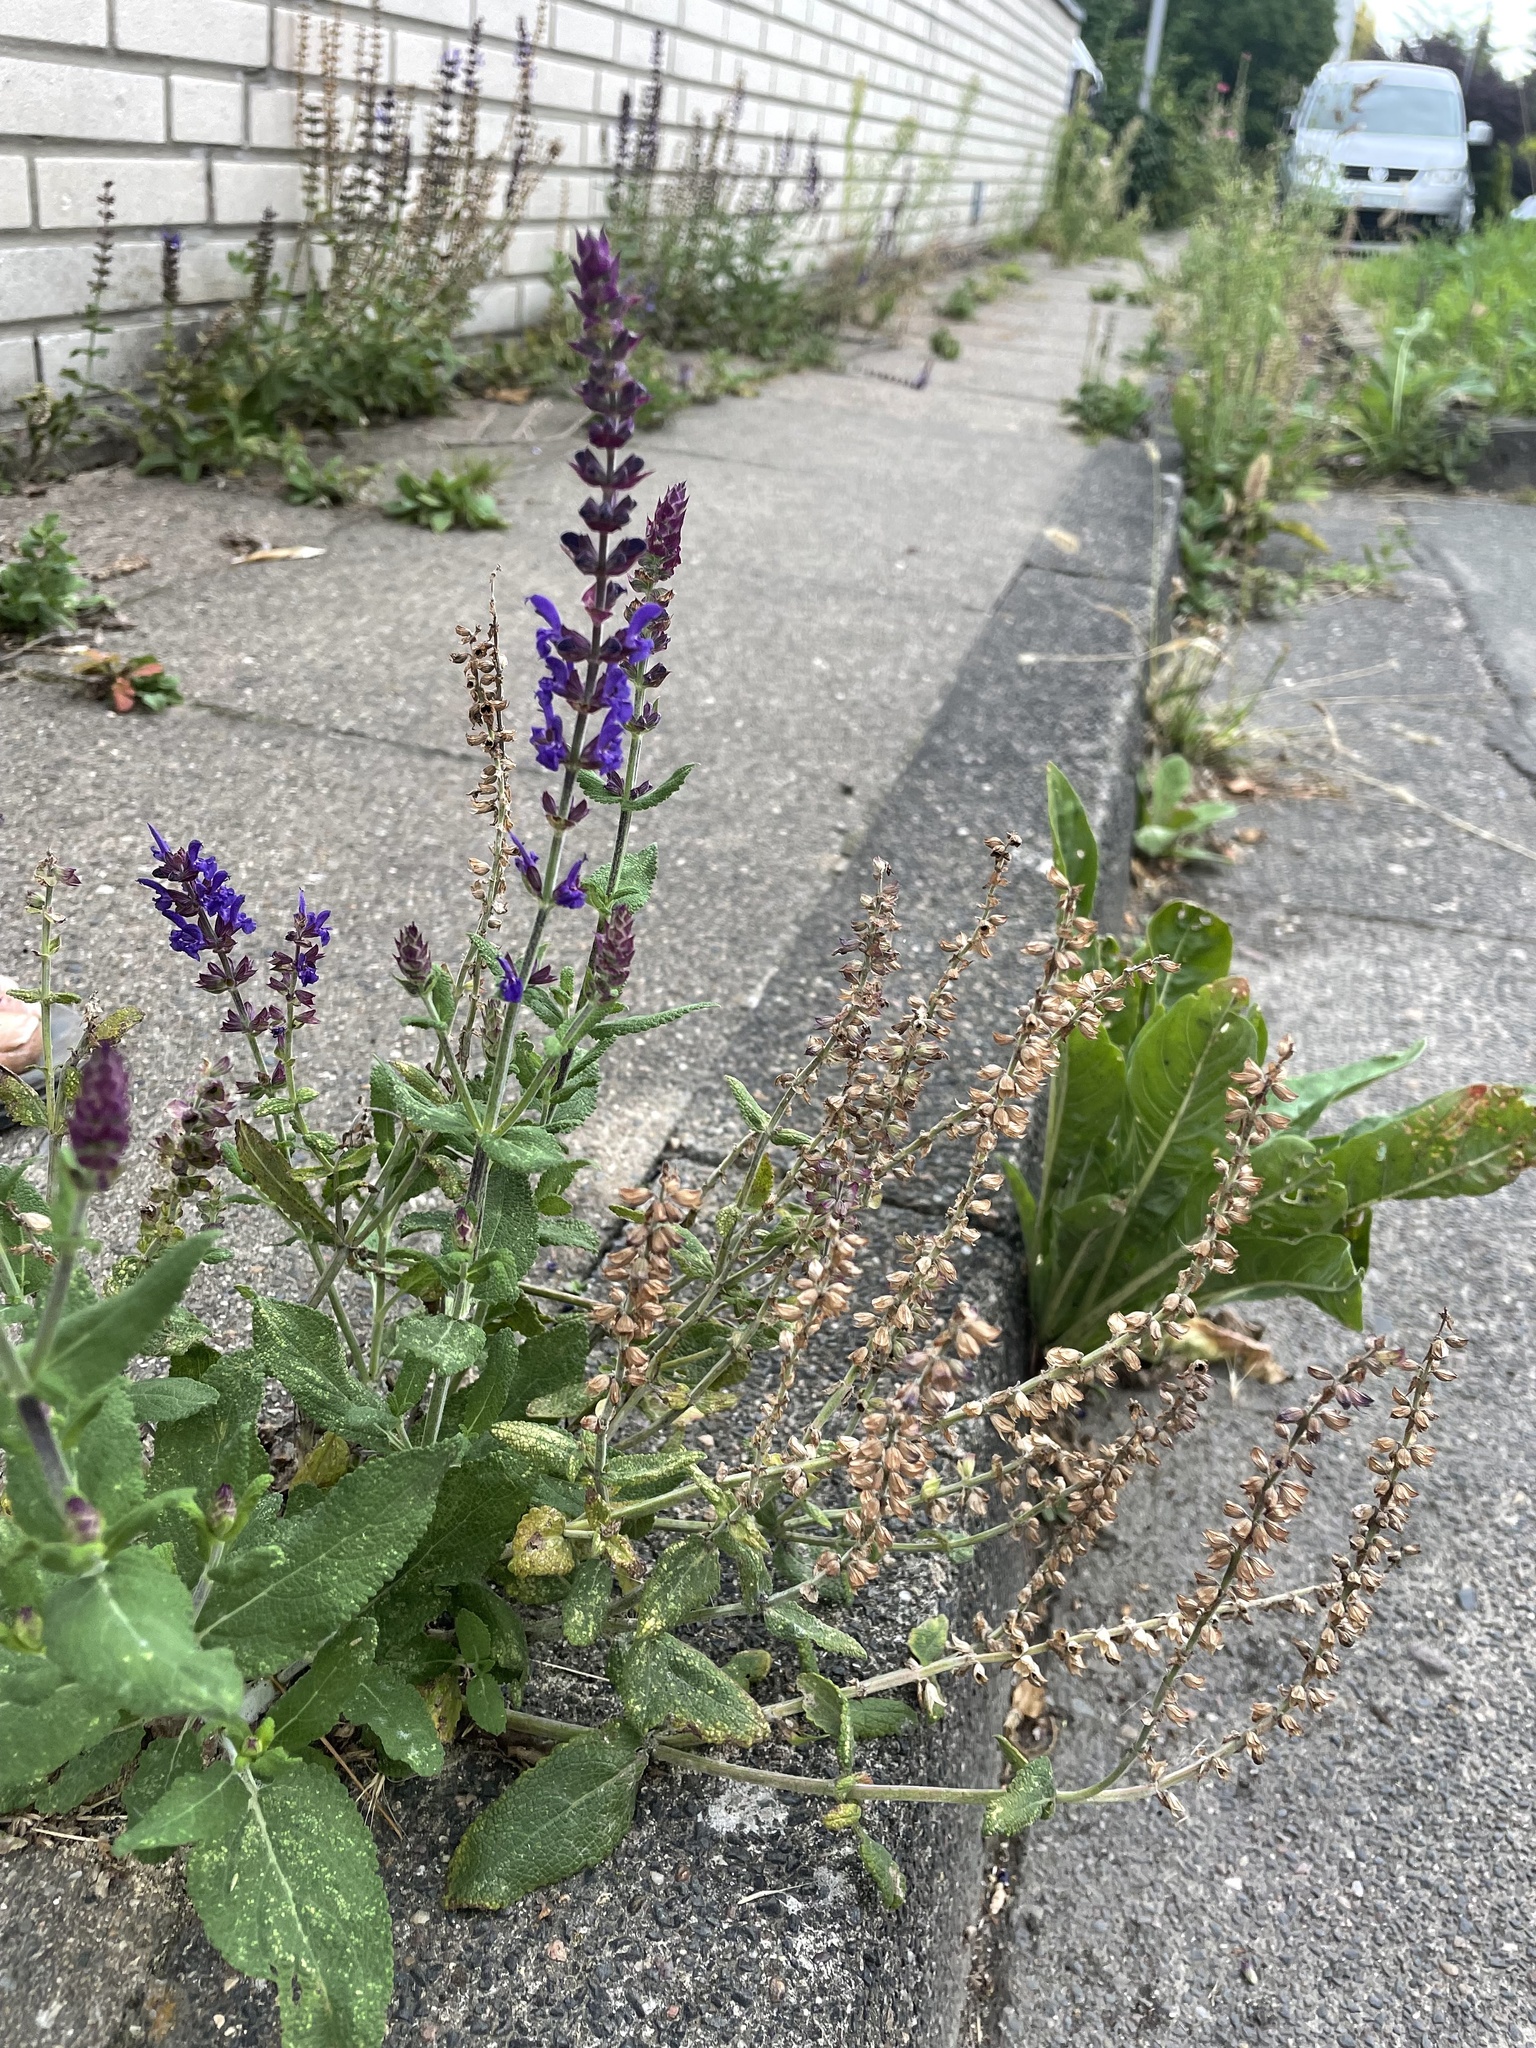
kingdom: Plantae
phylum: Tracheophyta
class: Magnoliopsida
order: Lamiales
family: Lamiaceae
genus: Salvia
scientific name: Salvia nemorosa
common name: Balkan clary
